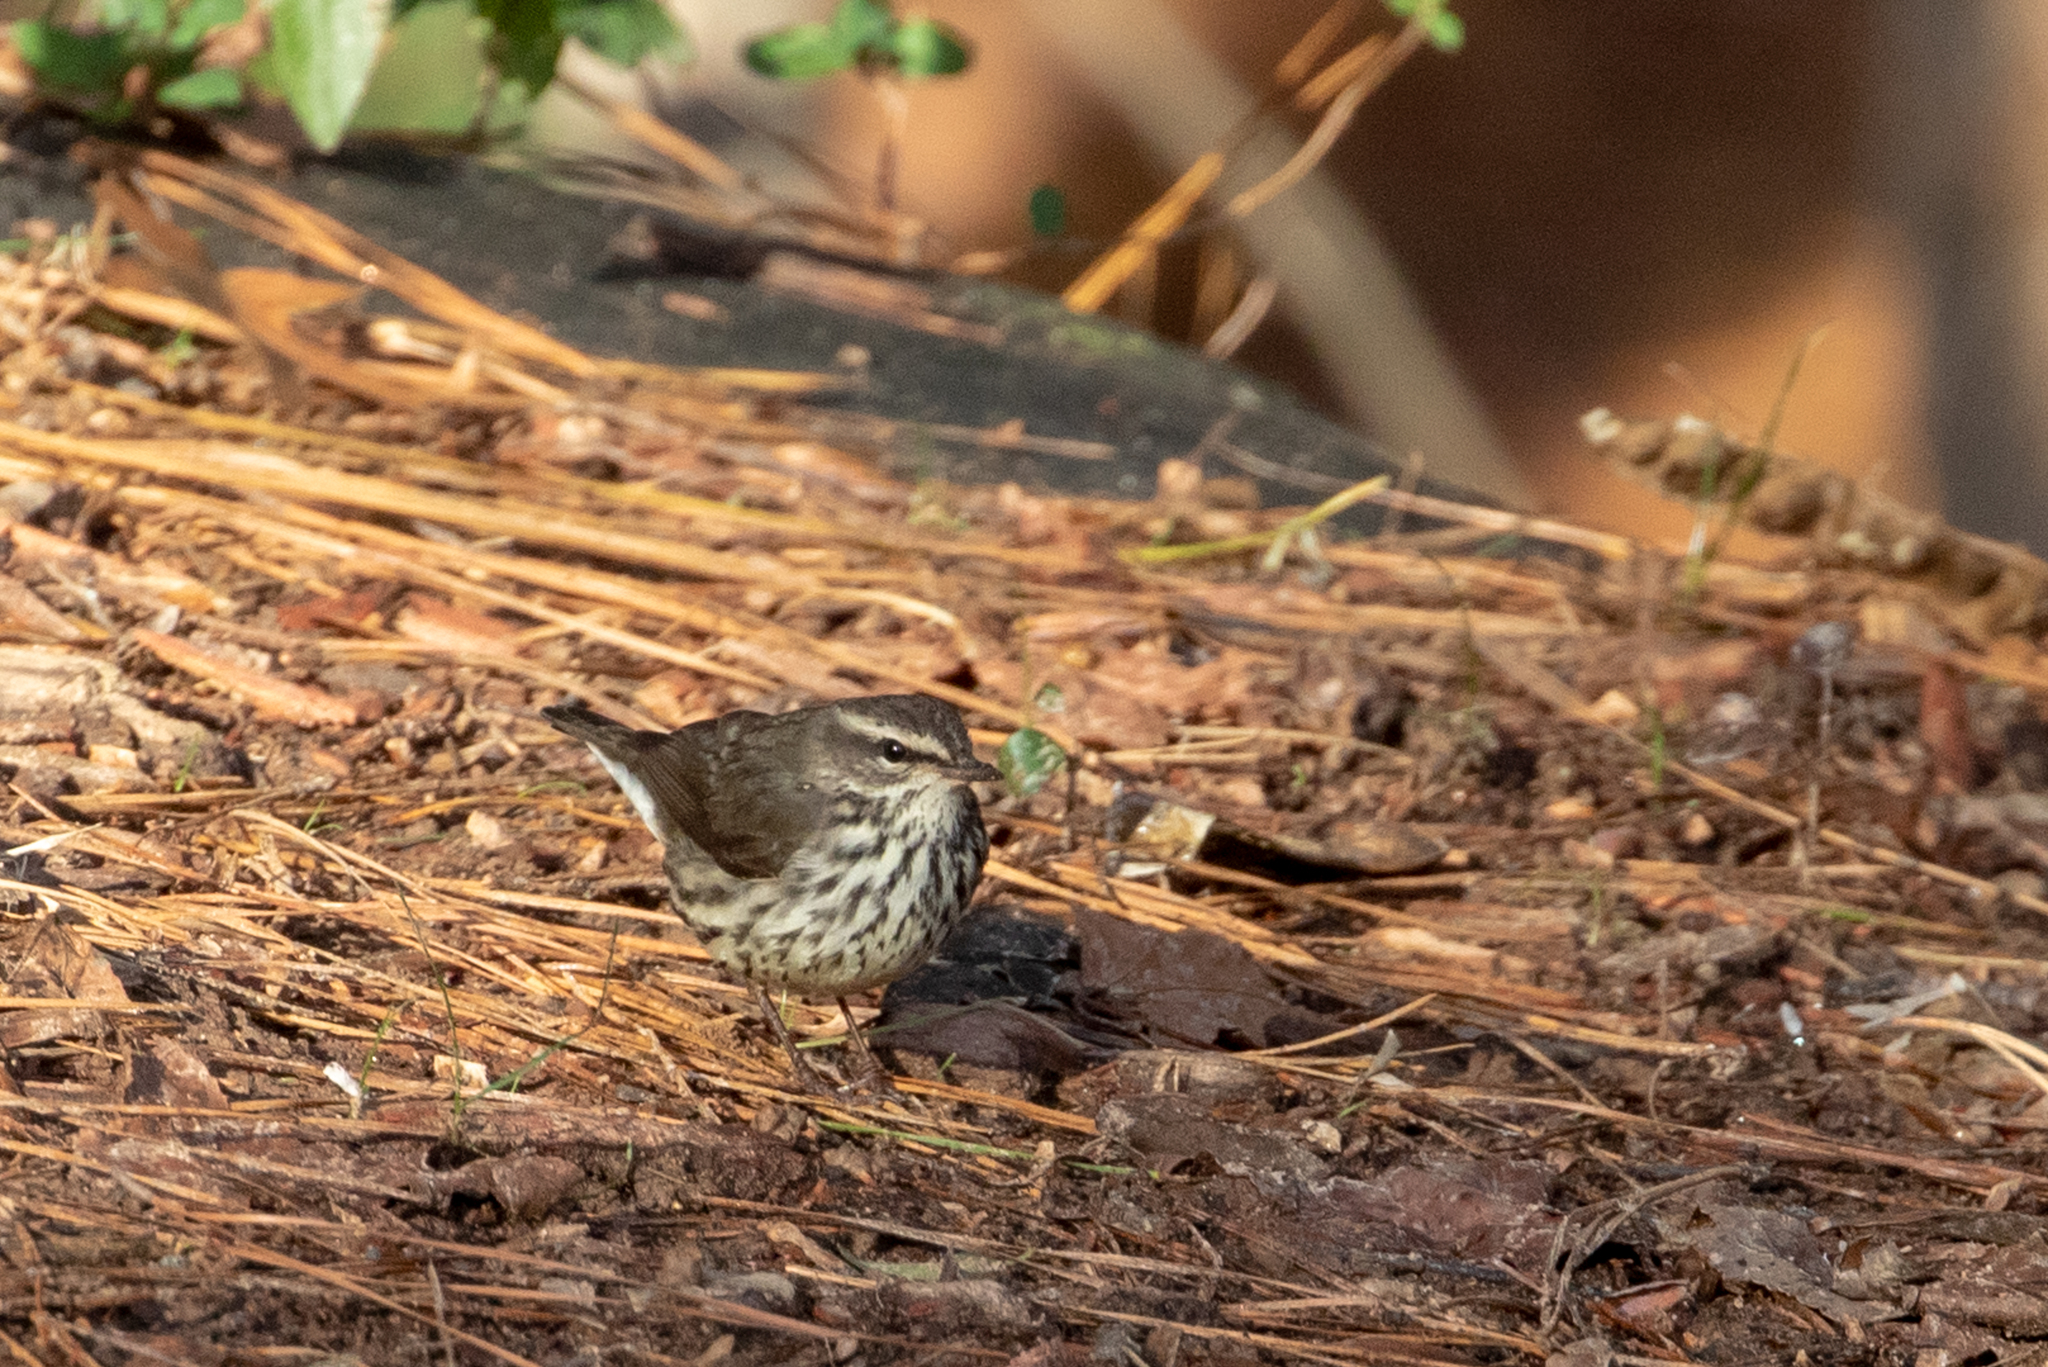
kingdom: Animalia
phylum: Chordata
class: Aves
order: Passeriformes
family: Parulidae
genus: Parkesia
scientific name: Parkesia noveboracensis
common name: Northern waterthrush
